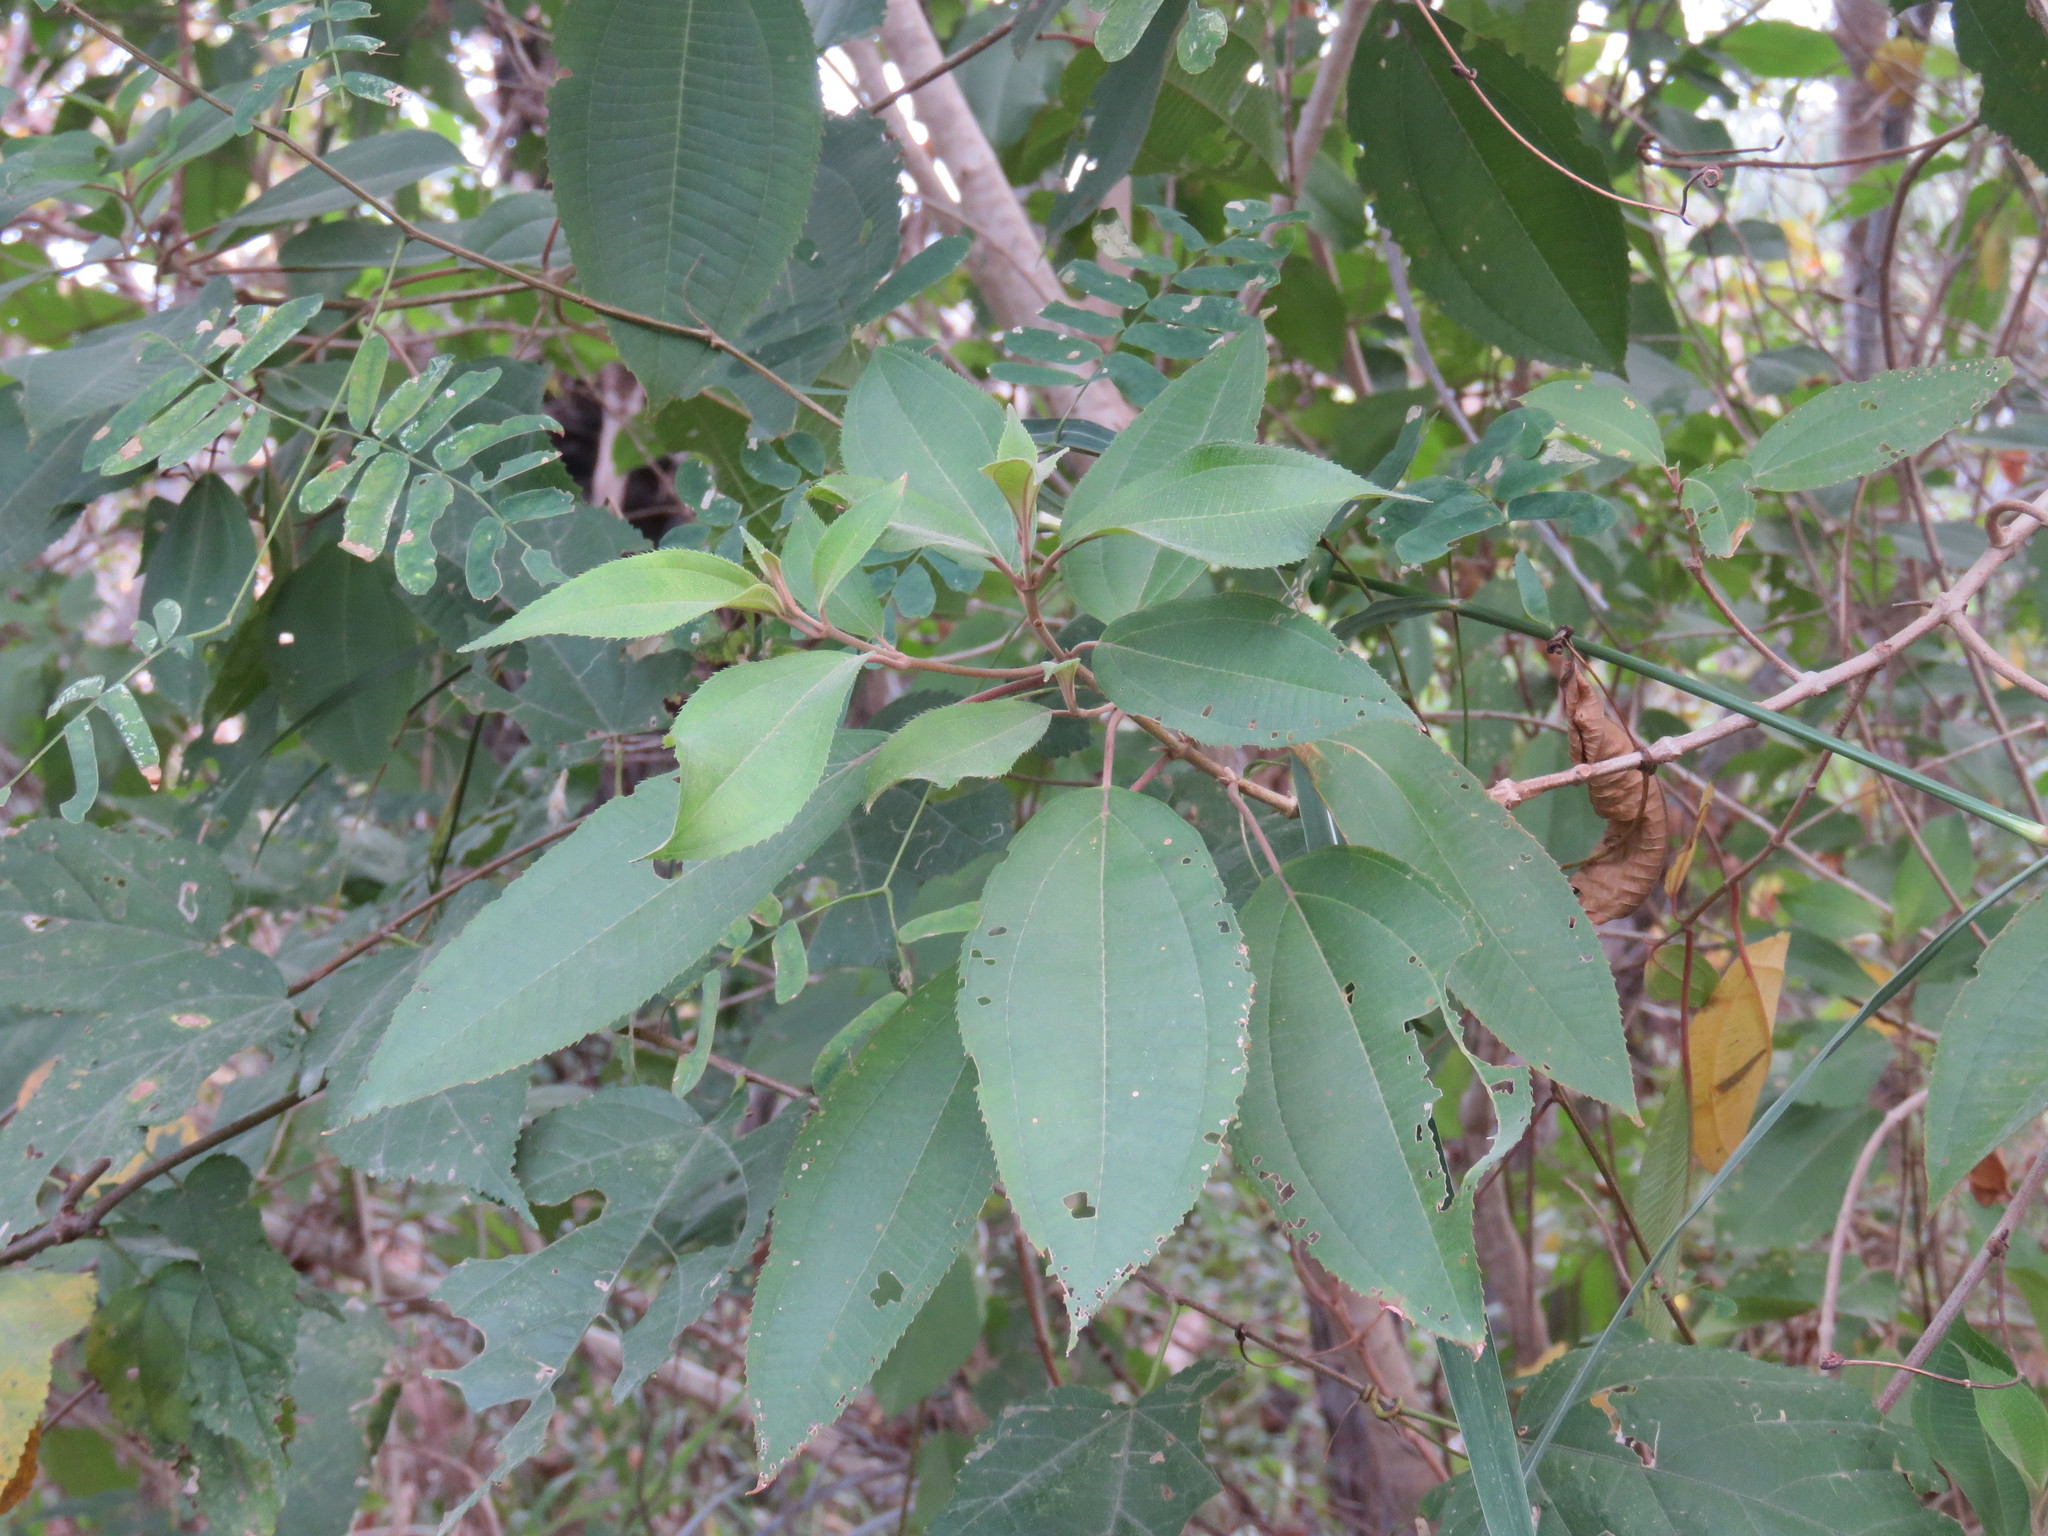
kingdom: Plantae
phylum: Tracheophyta
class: Magnoliopsida
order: Myrtales
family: Melastomataceae
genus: Miconia
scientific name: Miconia xalapensis
